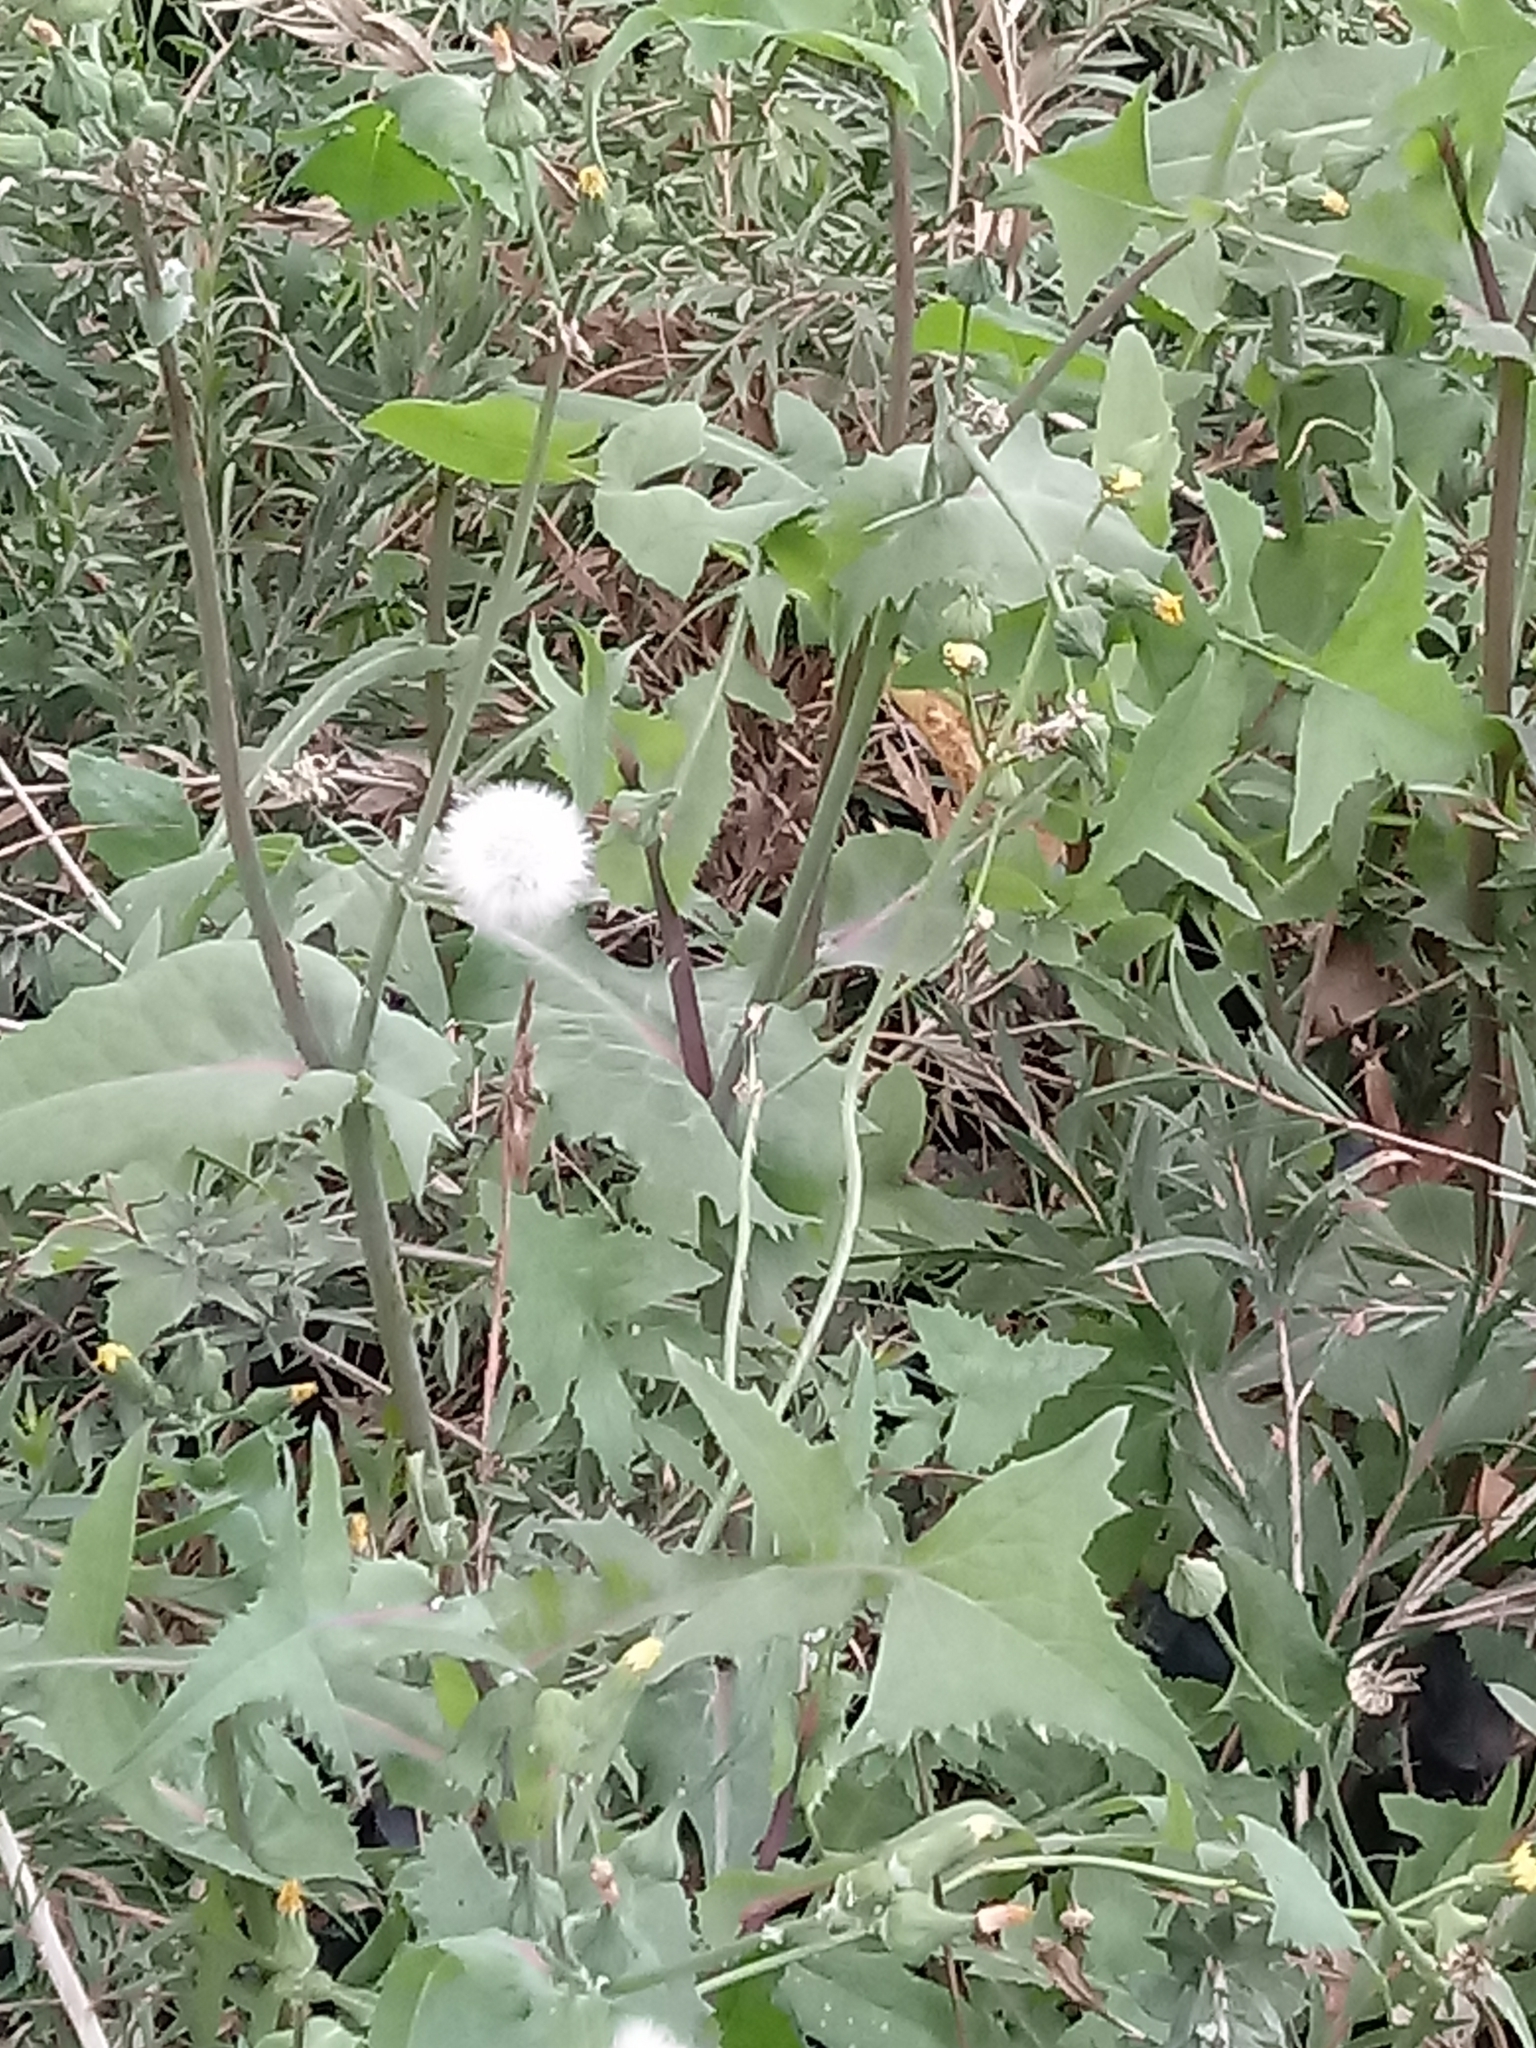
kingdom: Plantae
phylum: Tracheophyta
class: Magnoliopsida
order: Asterales
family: Asteraceae
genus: Sonchus
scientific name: Sonchus oleraceus
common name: Common sowthistle
